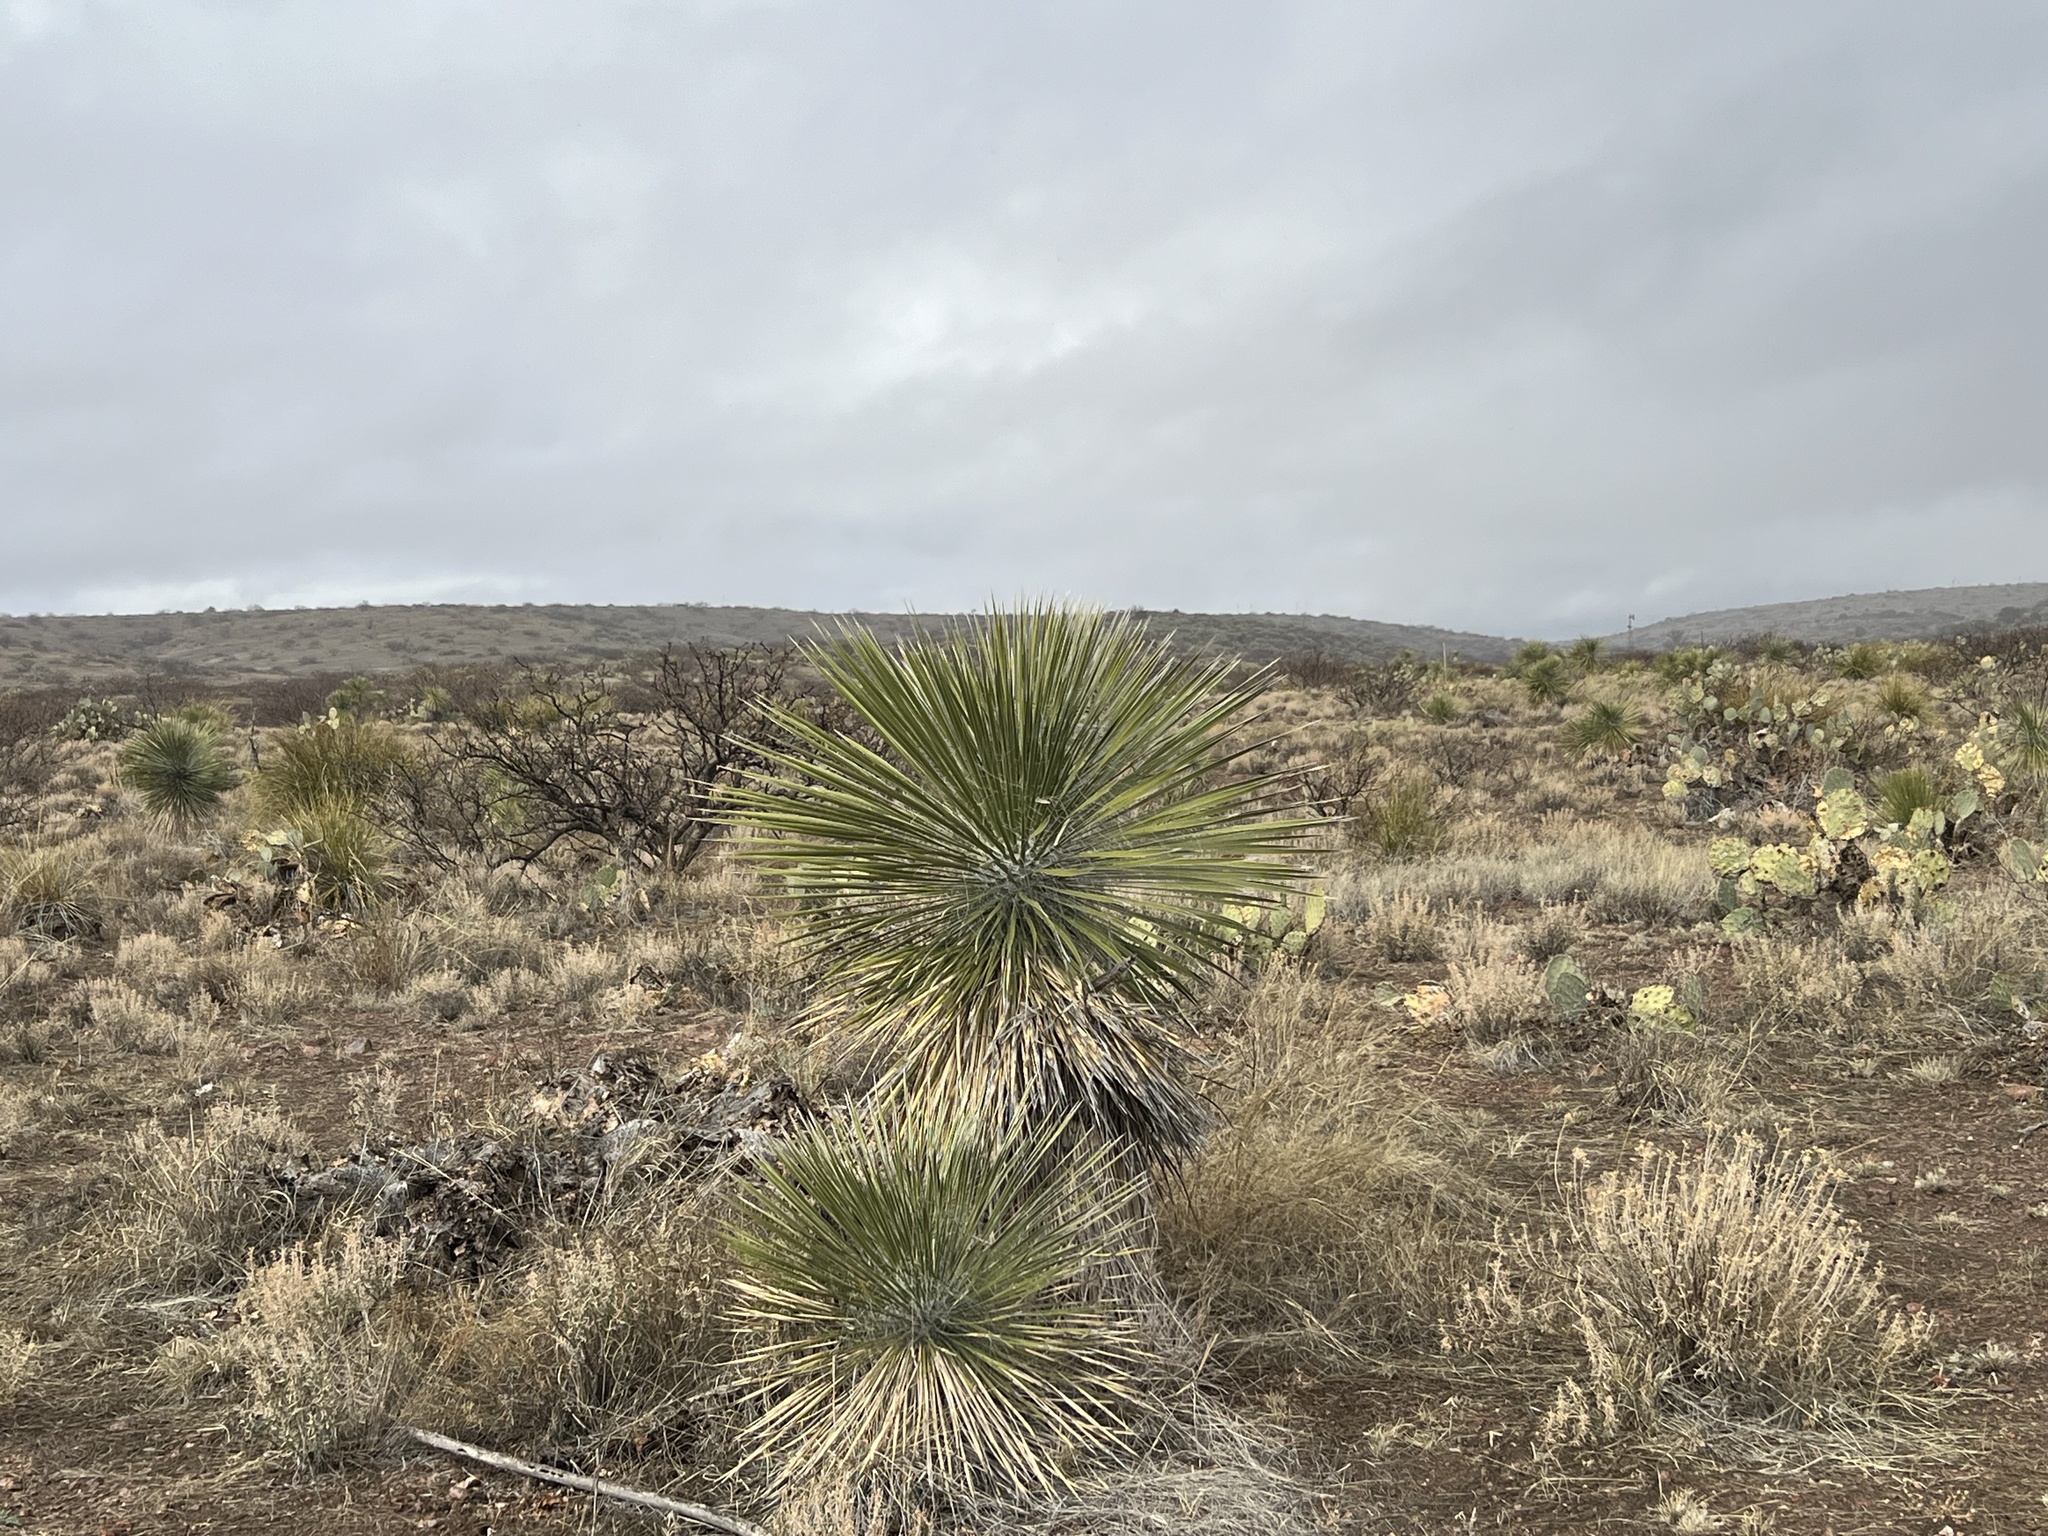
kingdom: Plantae
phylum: Tracheophyta
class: Liliopsida
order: Asparagales
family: Asparagaceae
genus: Yucca
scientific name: Yucca elata
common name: Palmella
